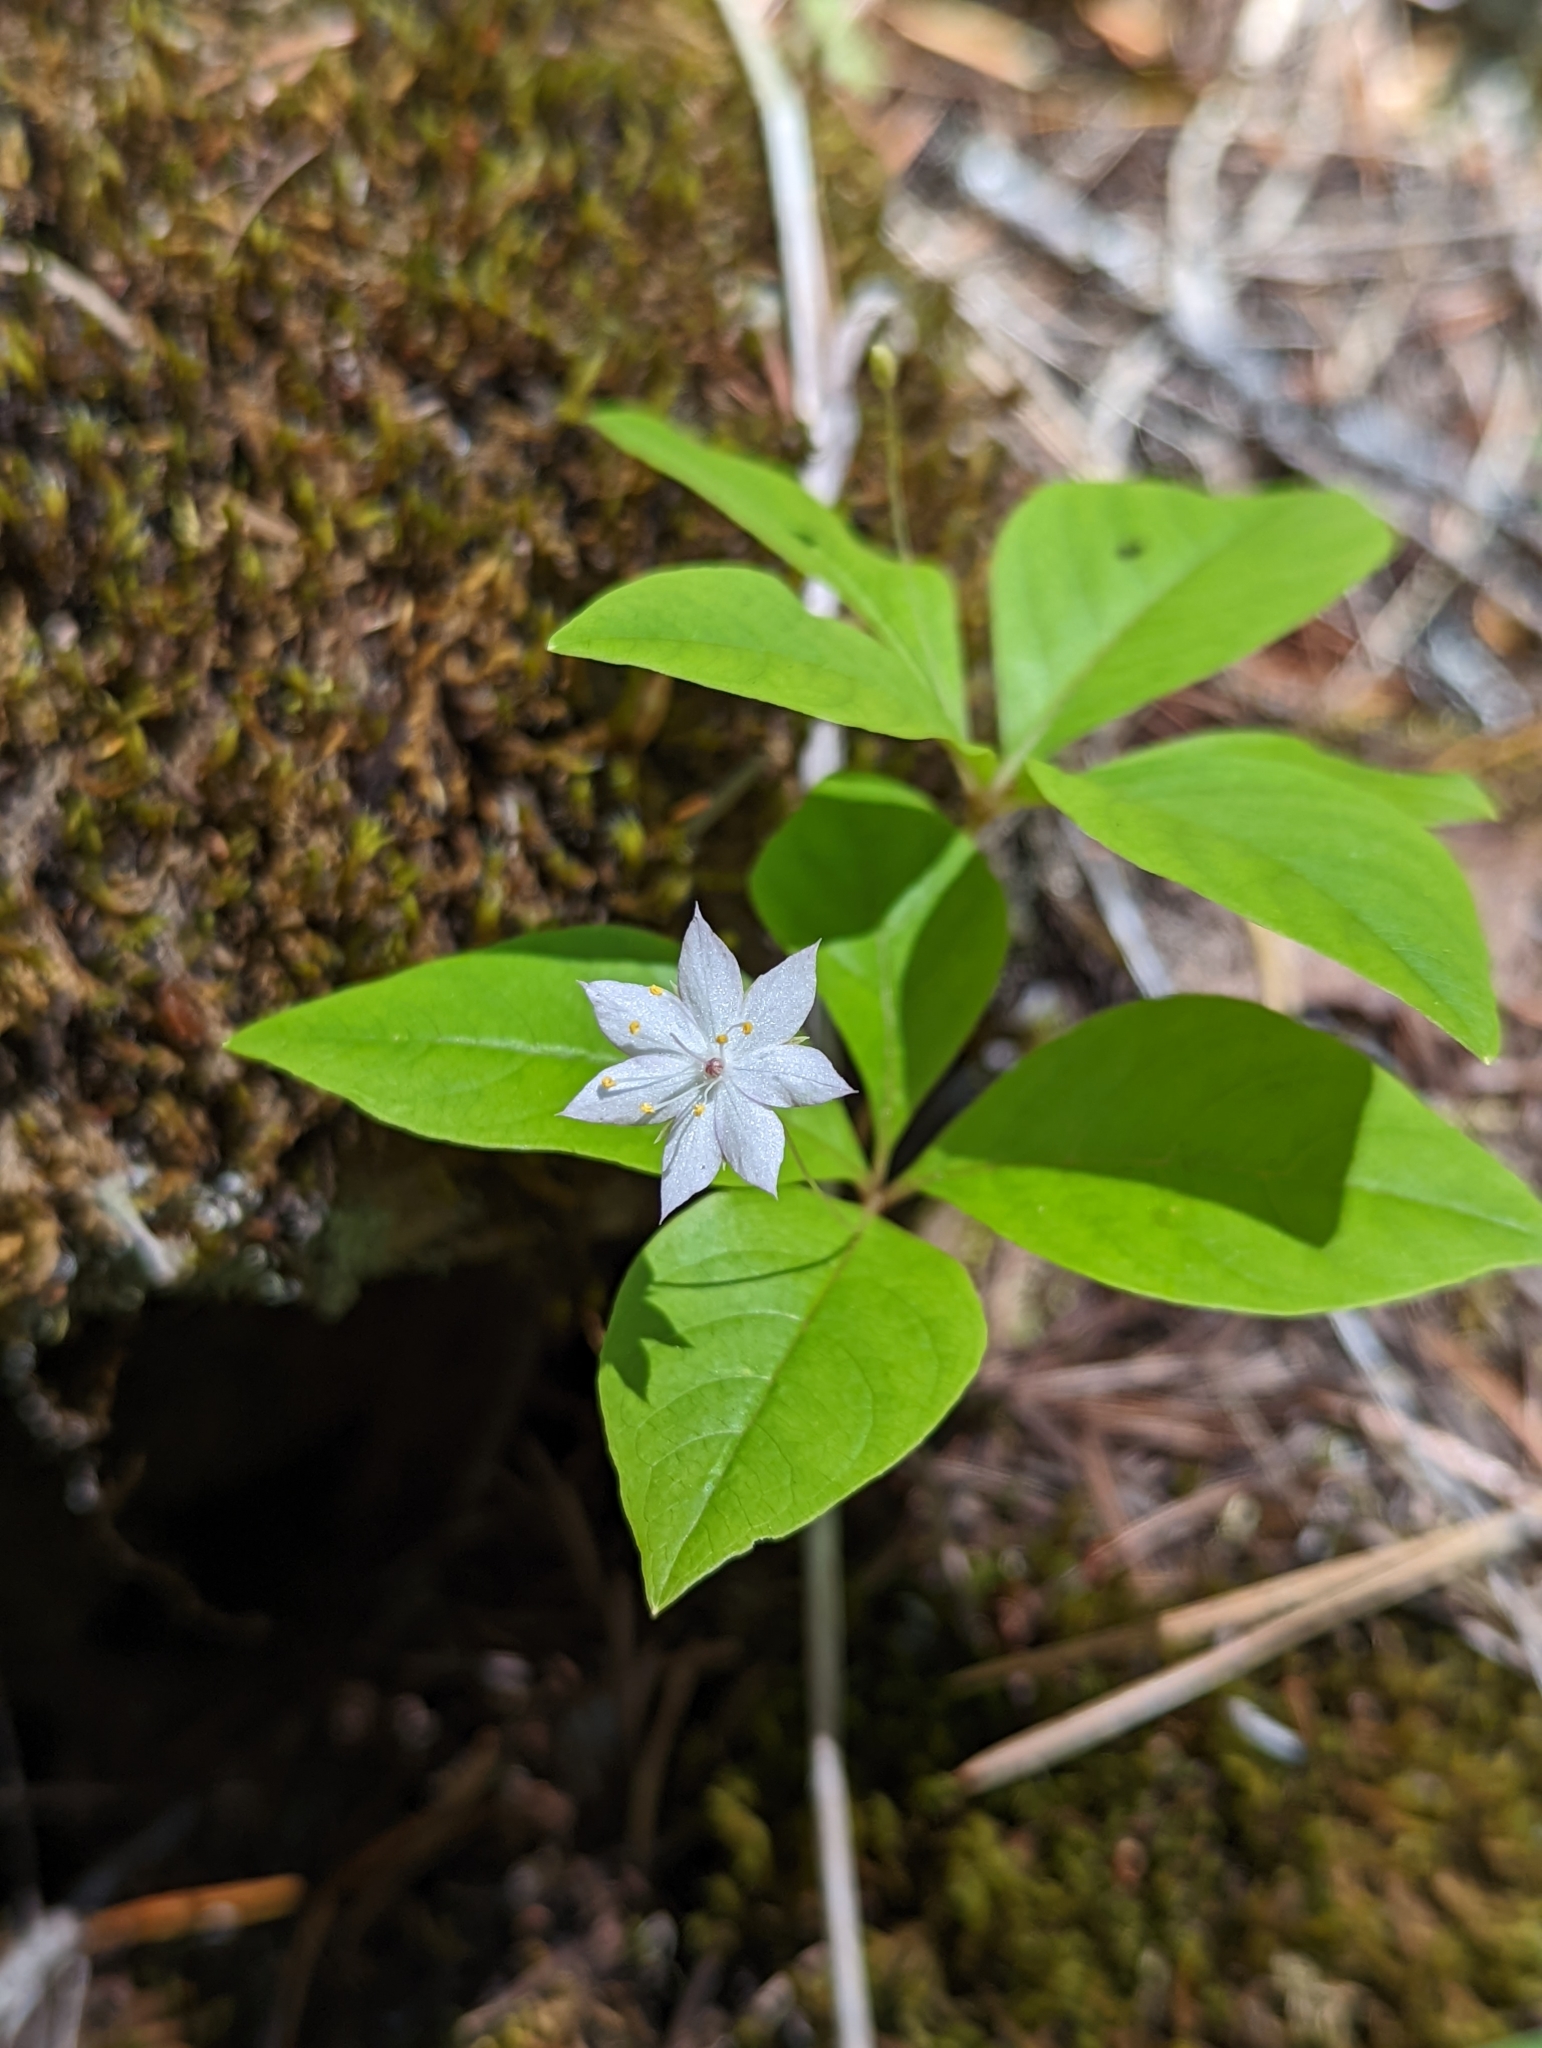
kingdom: Plantae
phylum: Tracheophyta
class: Magnoliopsida
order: Ericales
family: Primulaceae
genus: Lysimachia
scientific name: Lysimachia latifolia
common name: Pacific starflower
